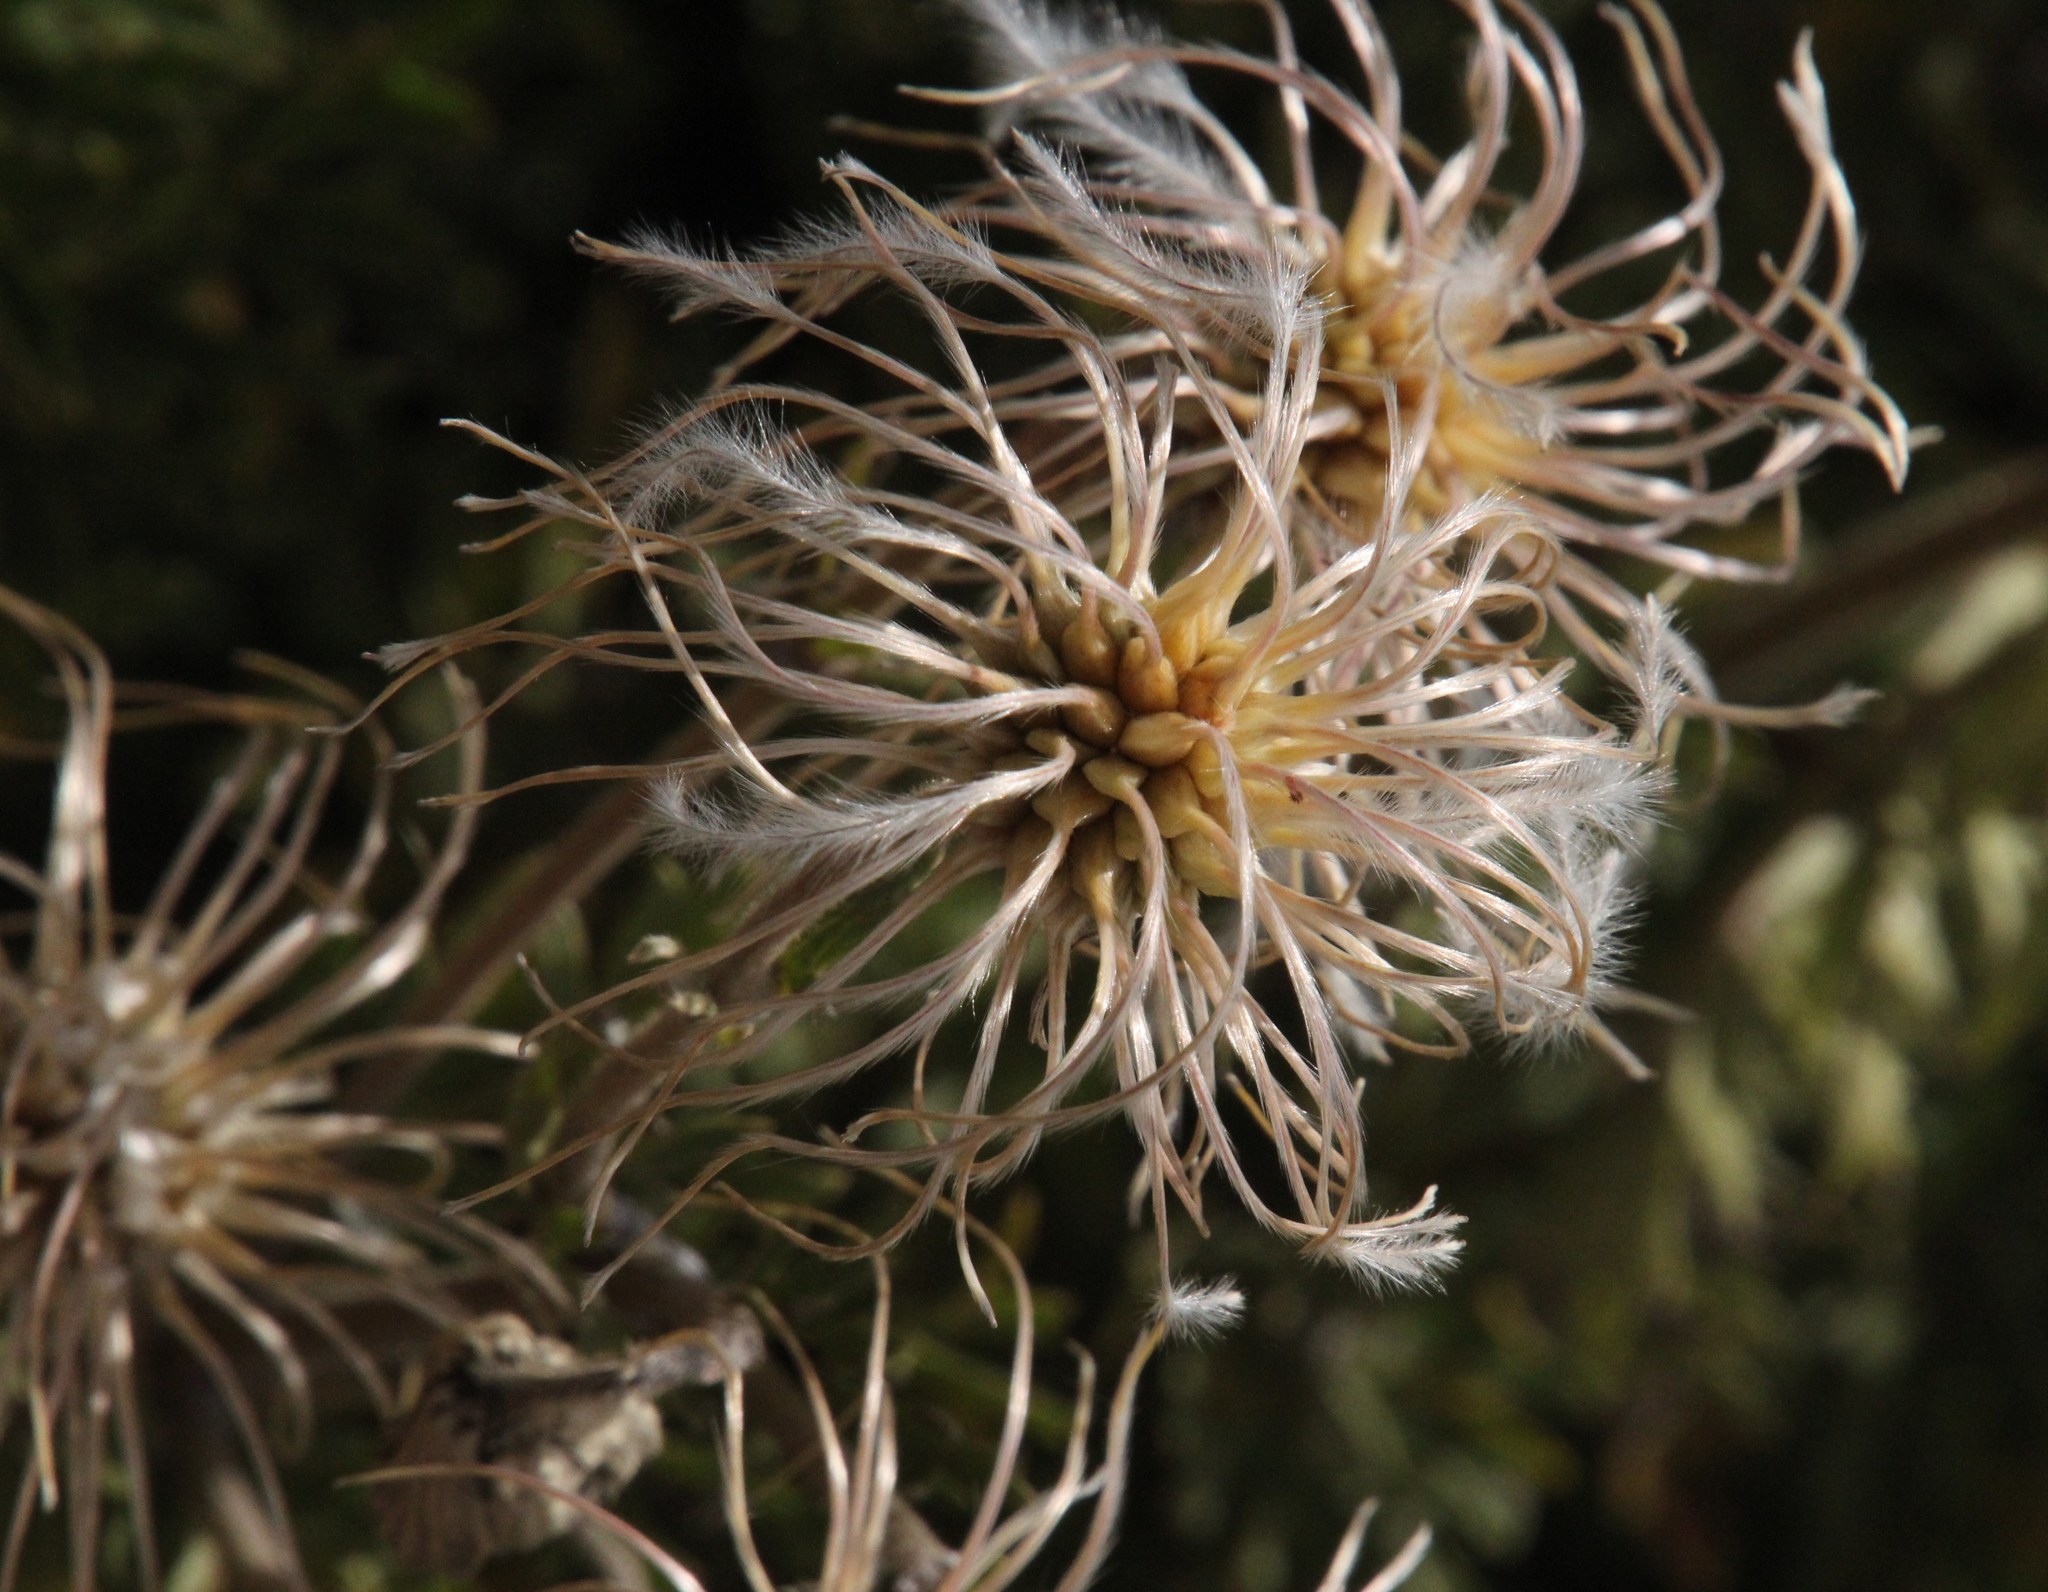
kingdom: Plantae
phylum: Tracheophyta
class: Magnoliopsida
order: Ranunculales
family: Ranunculaceae
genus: Clematis
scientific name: Clematis villosa
